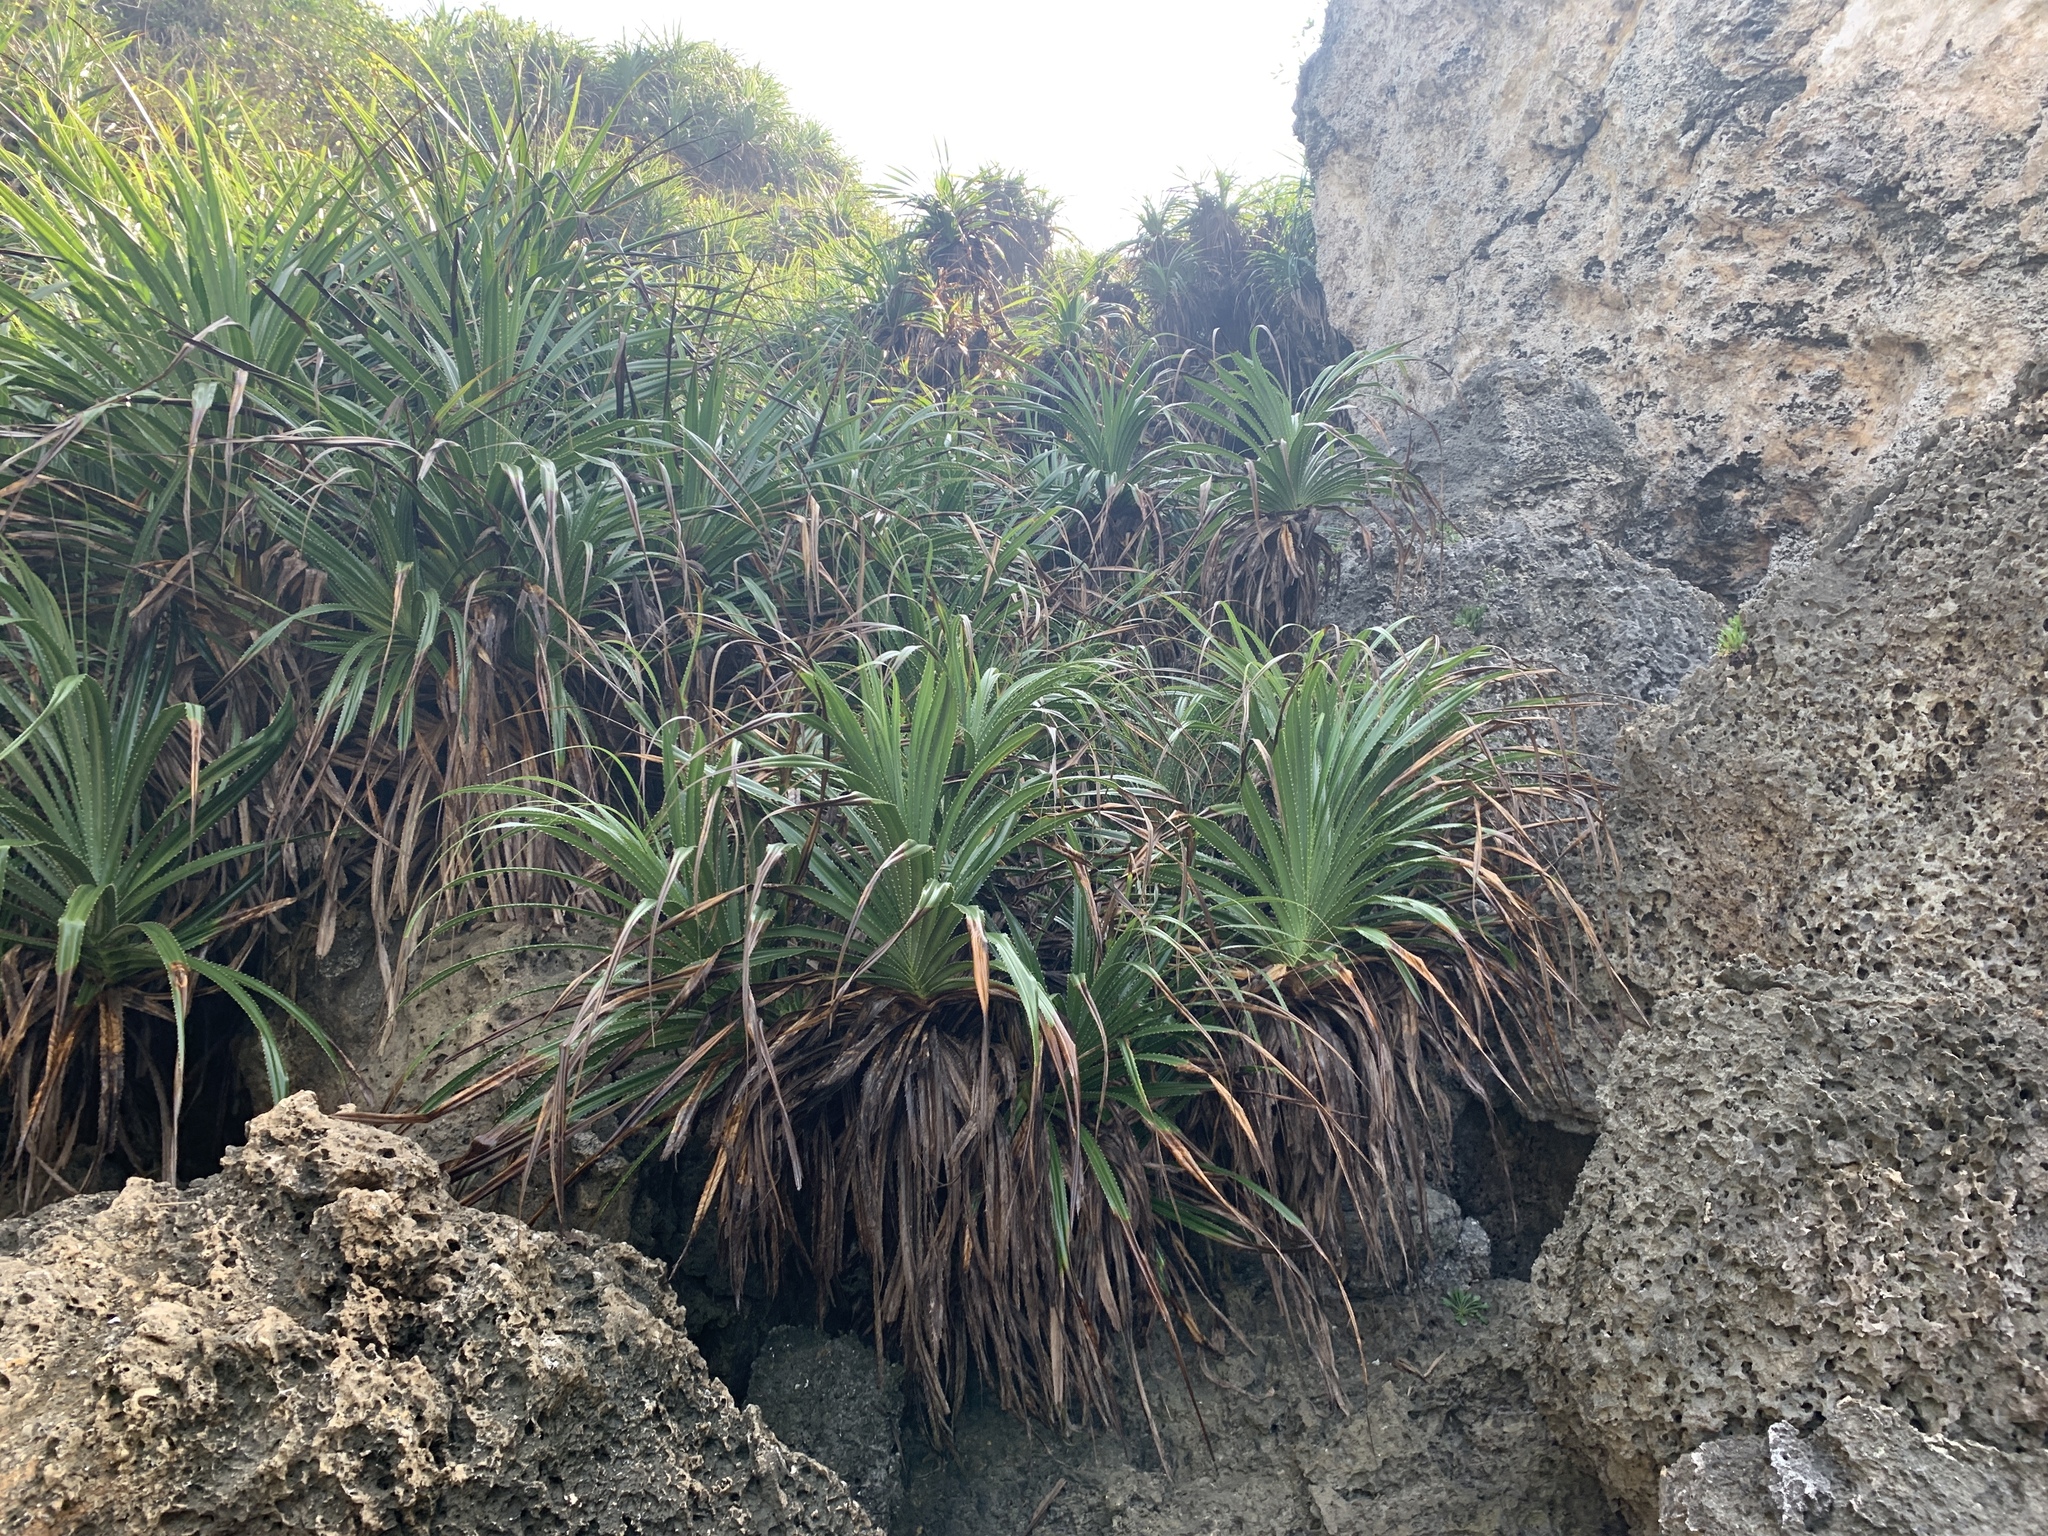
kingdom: Plantae
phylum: Tracheophyta
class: Liliopsida
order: Pandanales
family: Pandanaceae
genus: Pandanus
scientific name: Pandanus odorifer
